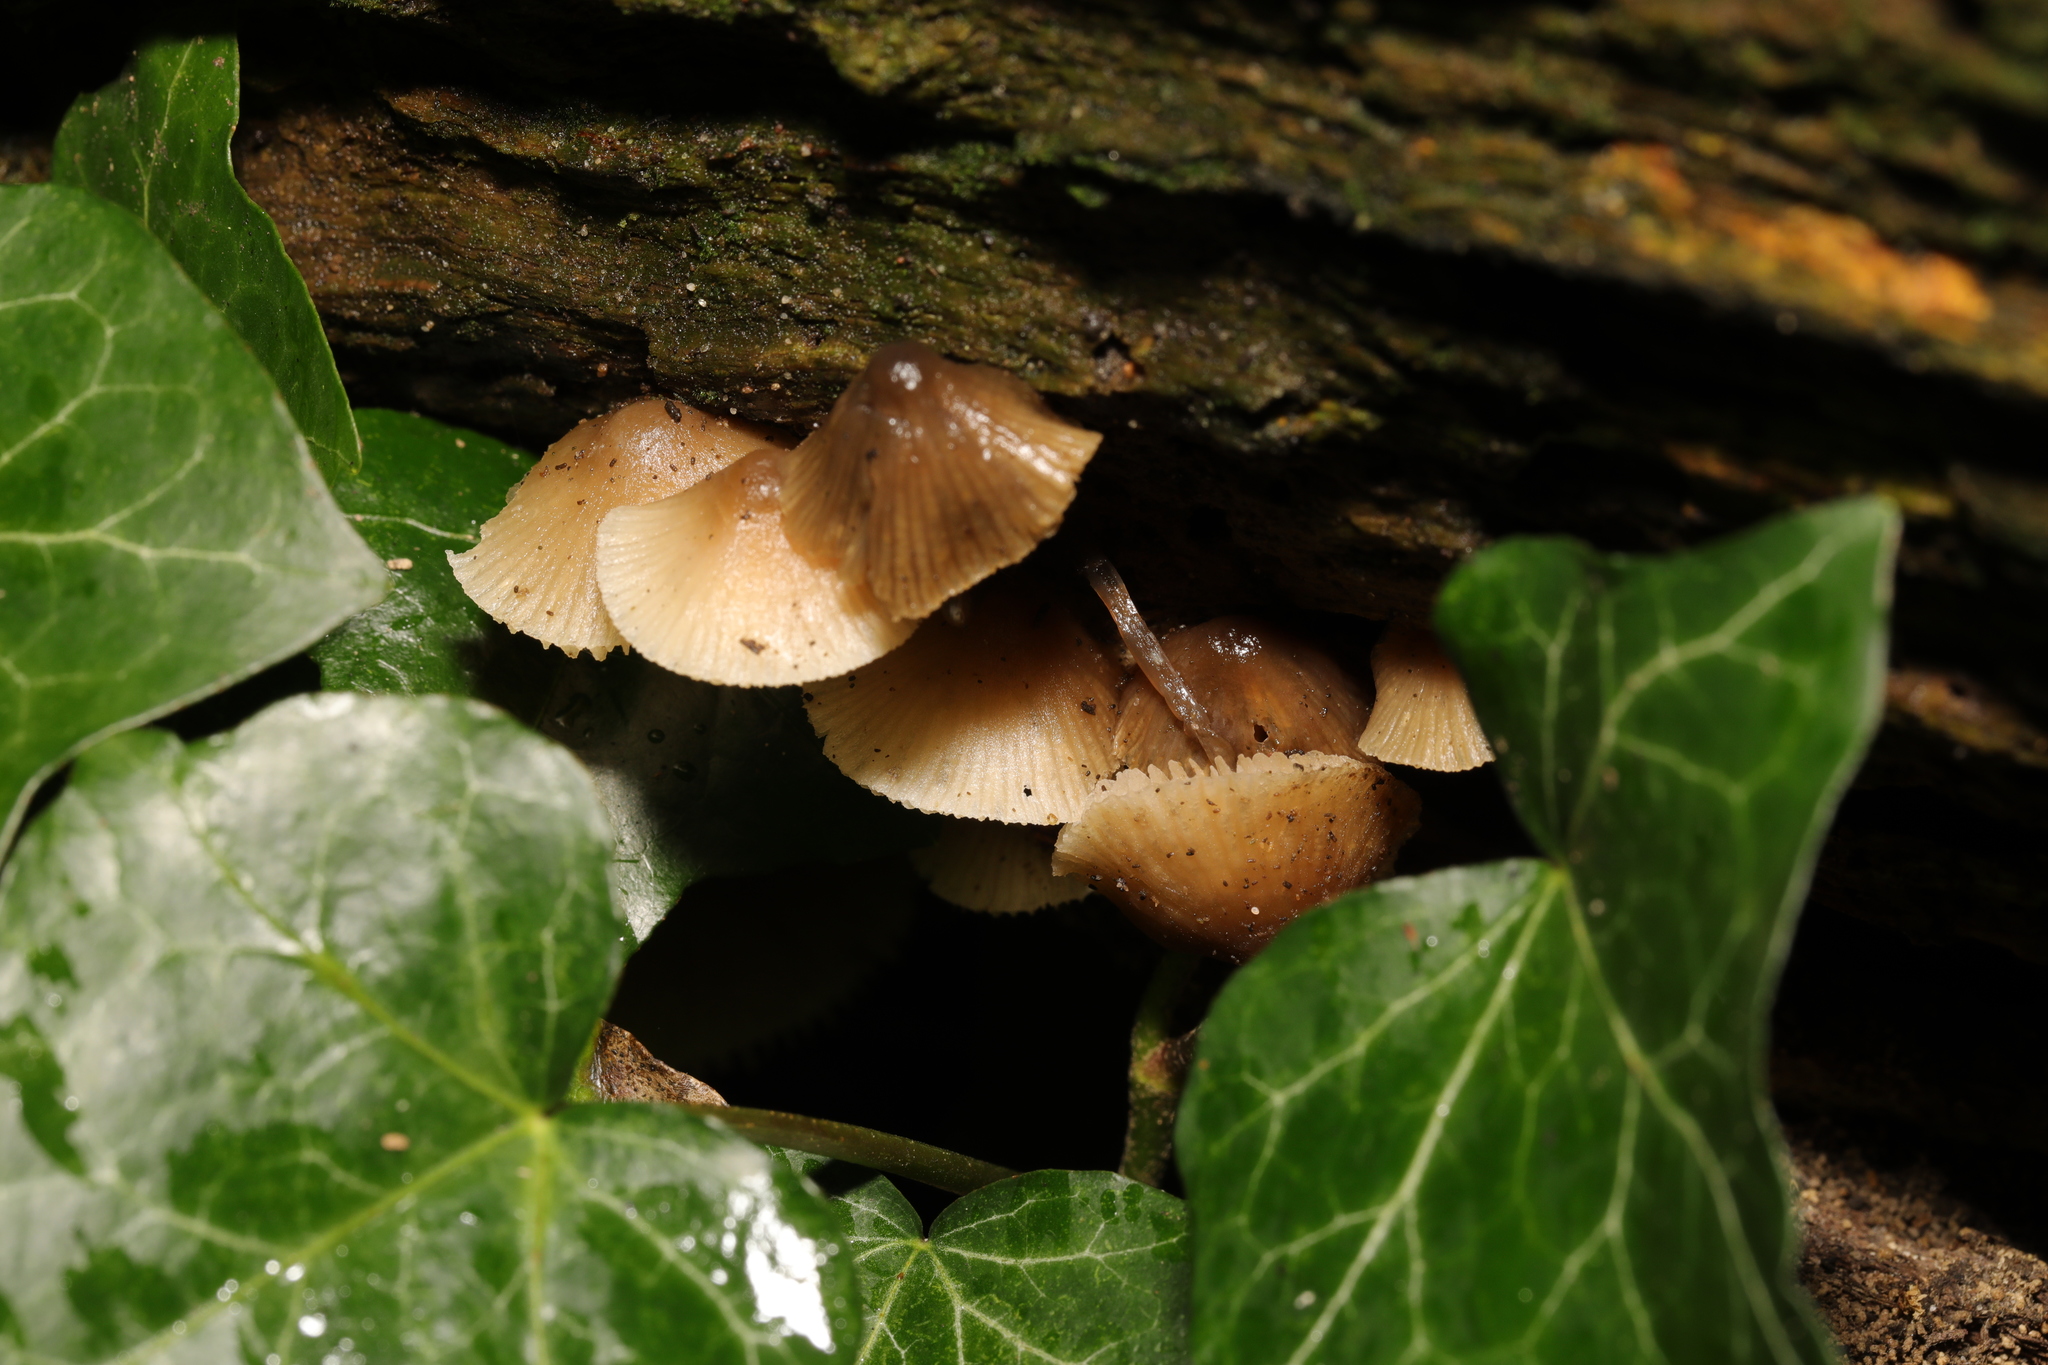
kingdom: Fungi
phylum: Basidiomycota
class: Agaricomycetes
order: Agaricales
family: Mycenaceae
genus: Mycena
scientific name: Mycena
